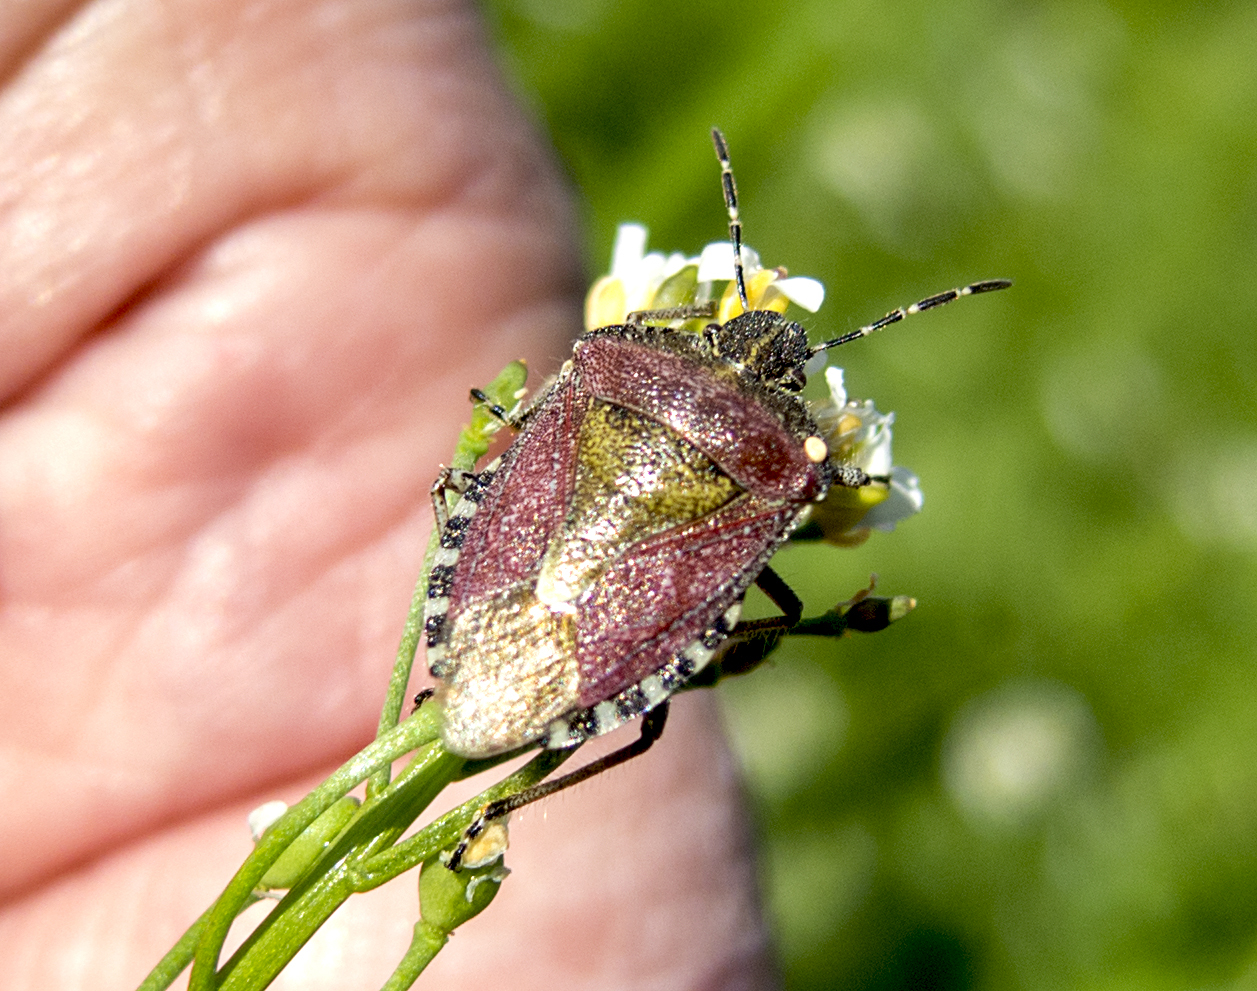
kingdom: Animalia
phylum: Arthropoda
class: Insecta
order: Hemiptera
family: Pentatomidae
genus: Dolycoris
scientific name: Dolycoris baccarum
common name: Sloe bug
